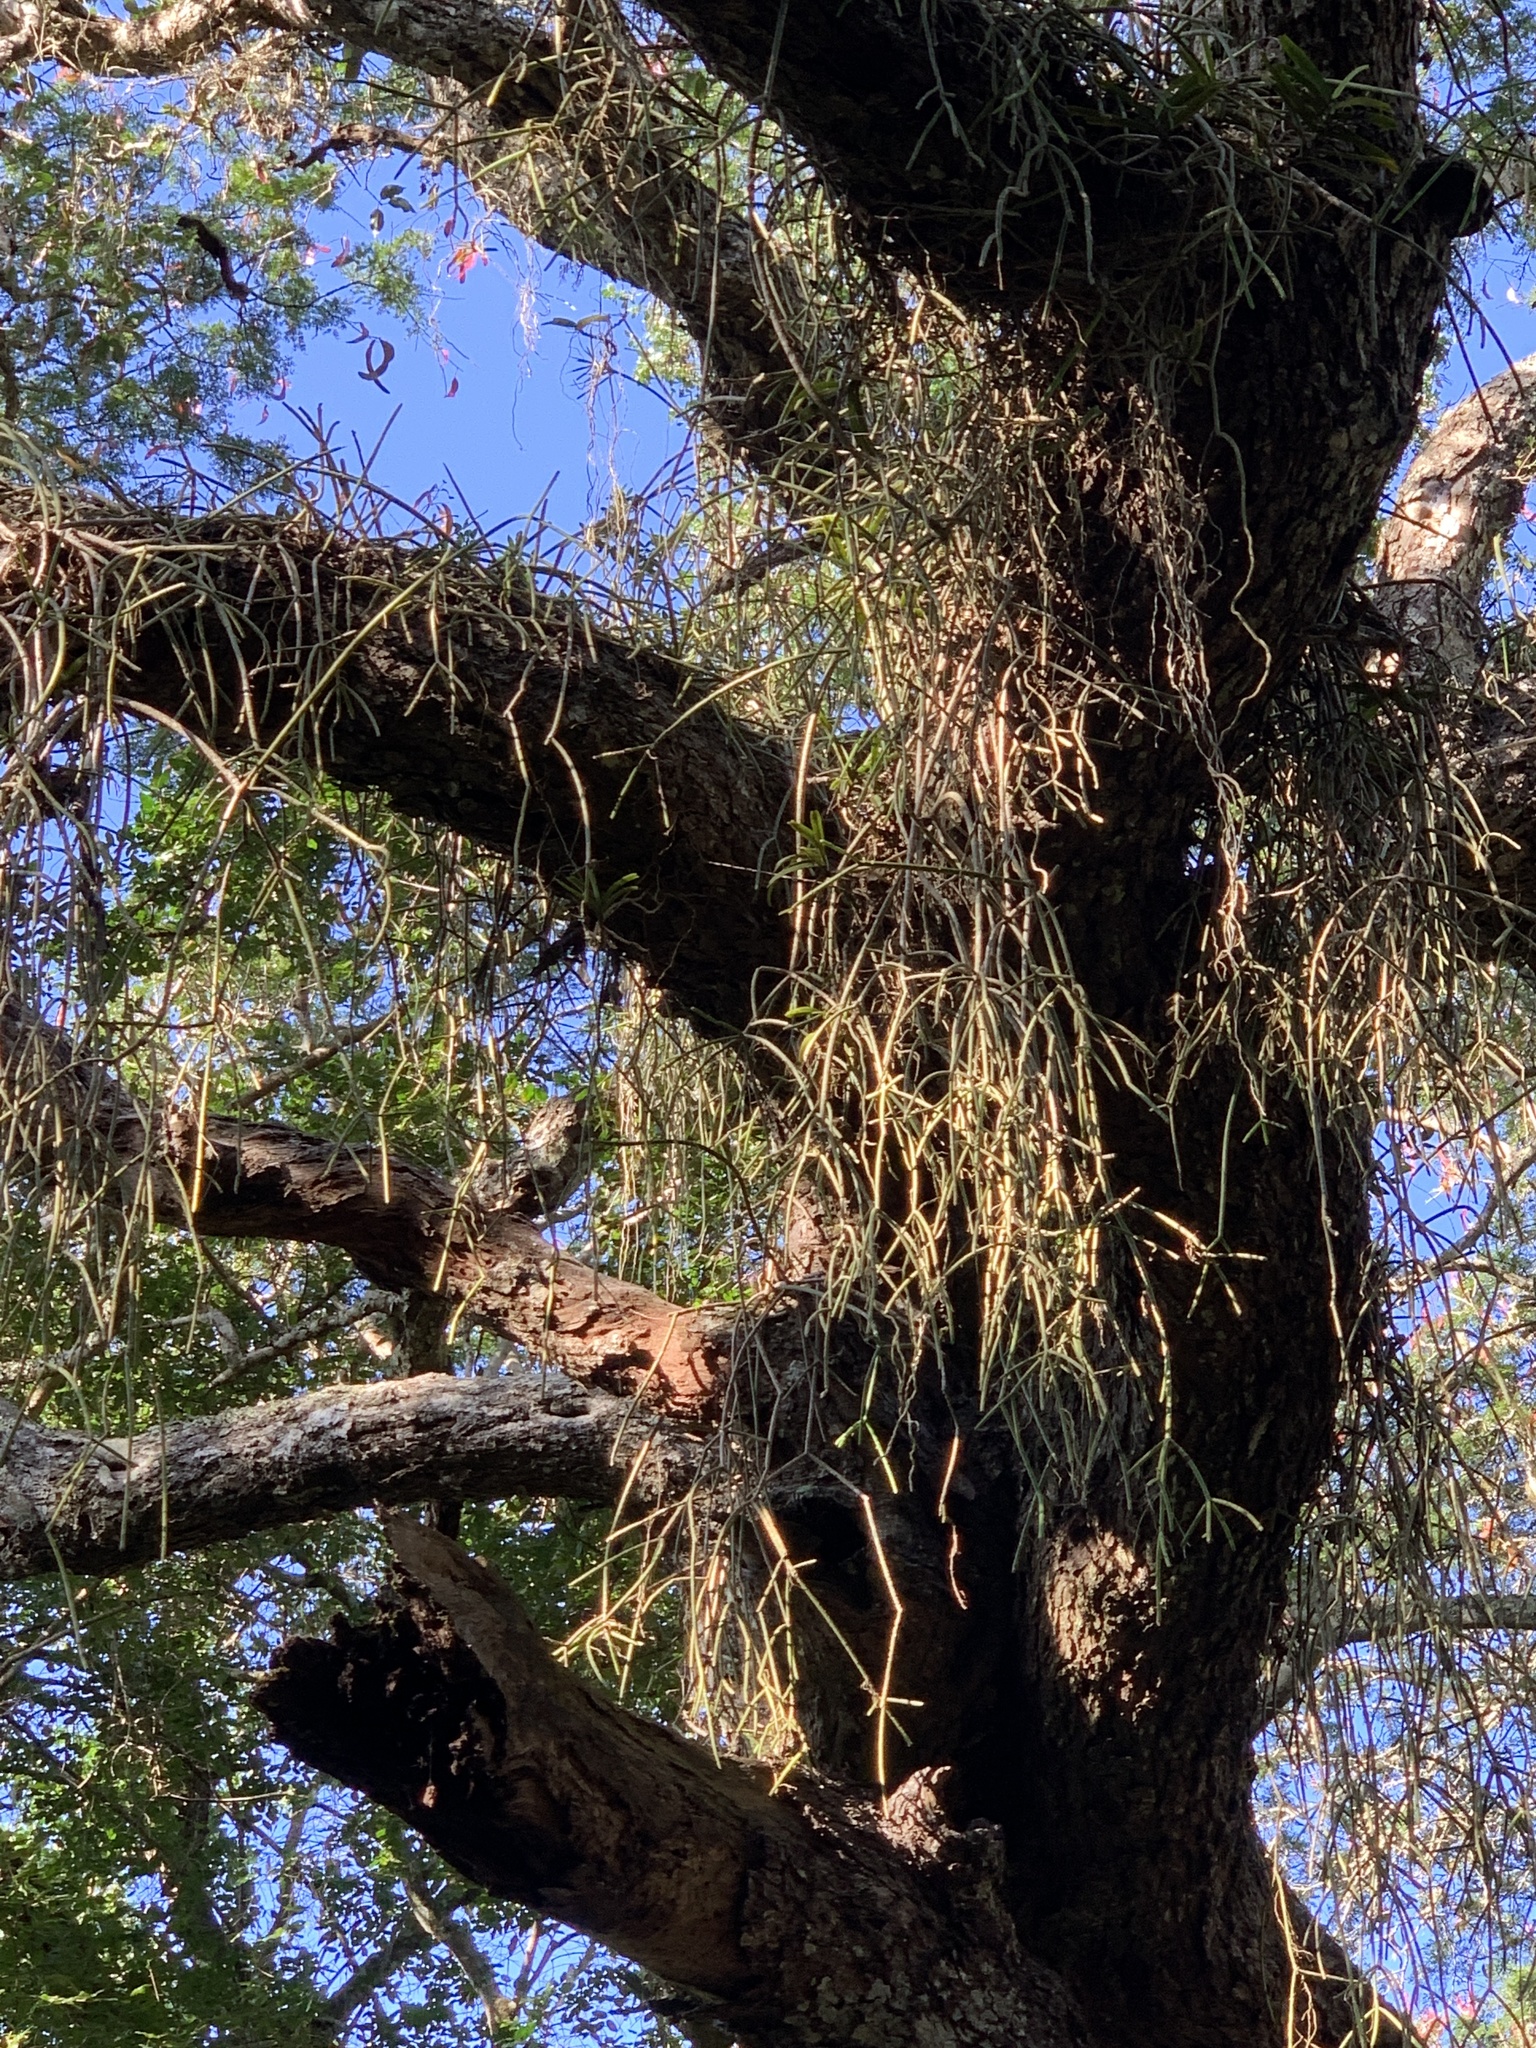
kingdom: Plantae
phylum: Tracheophyta
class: Magnoliopsida
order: Caryophyllales
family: Cactaceae
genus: Rhipsalis
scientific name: Rhipsalis baccifera
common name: Mistletoe cactus
